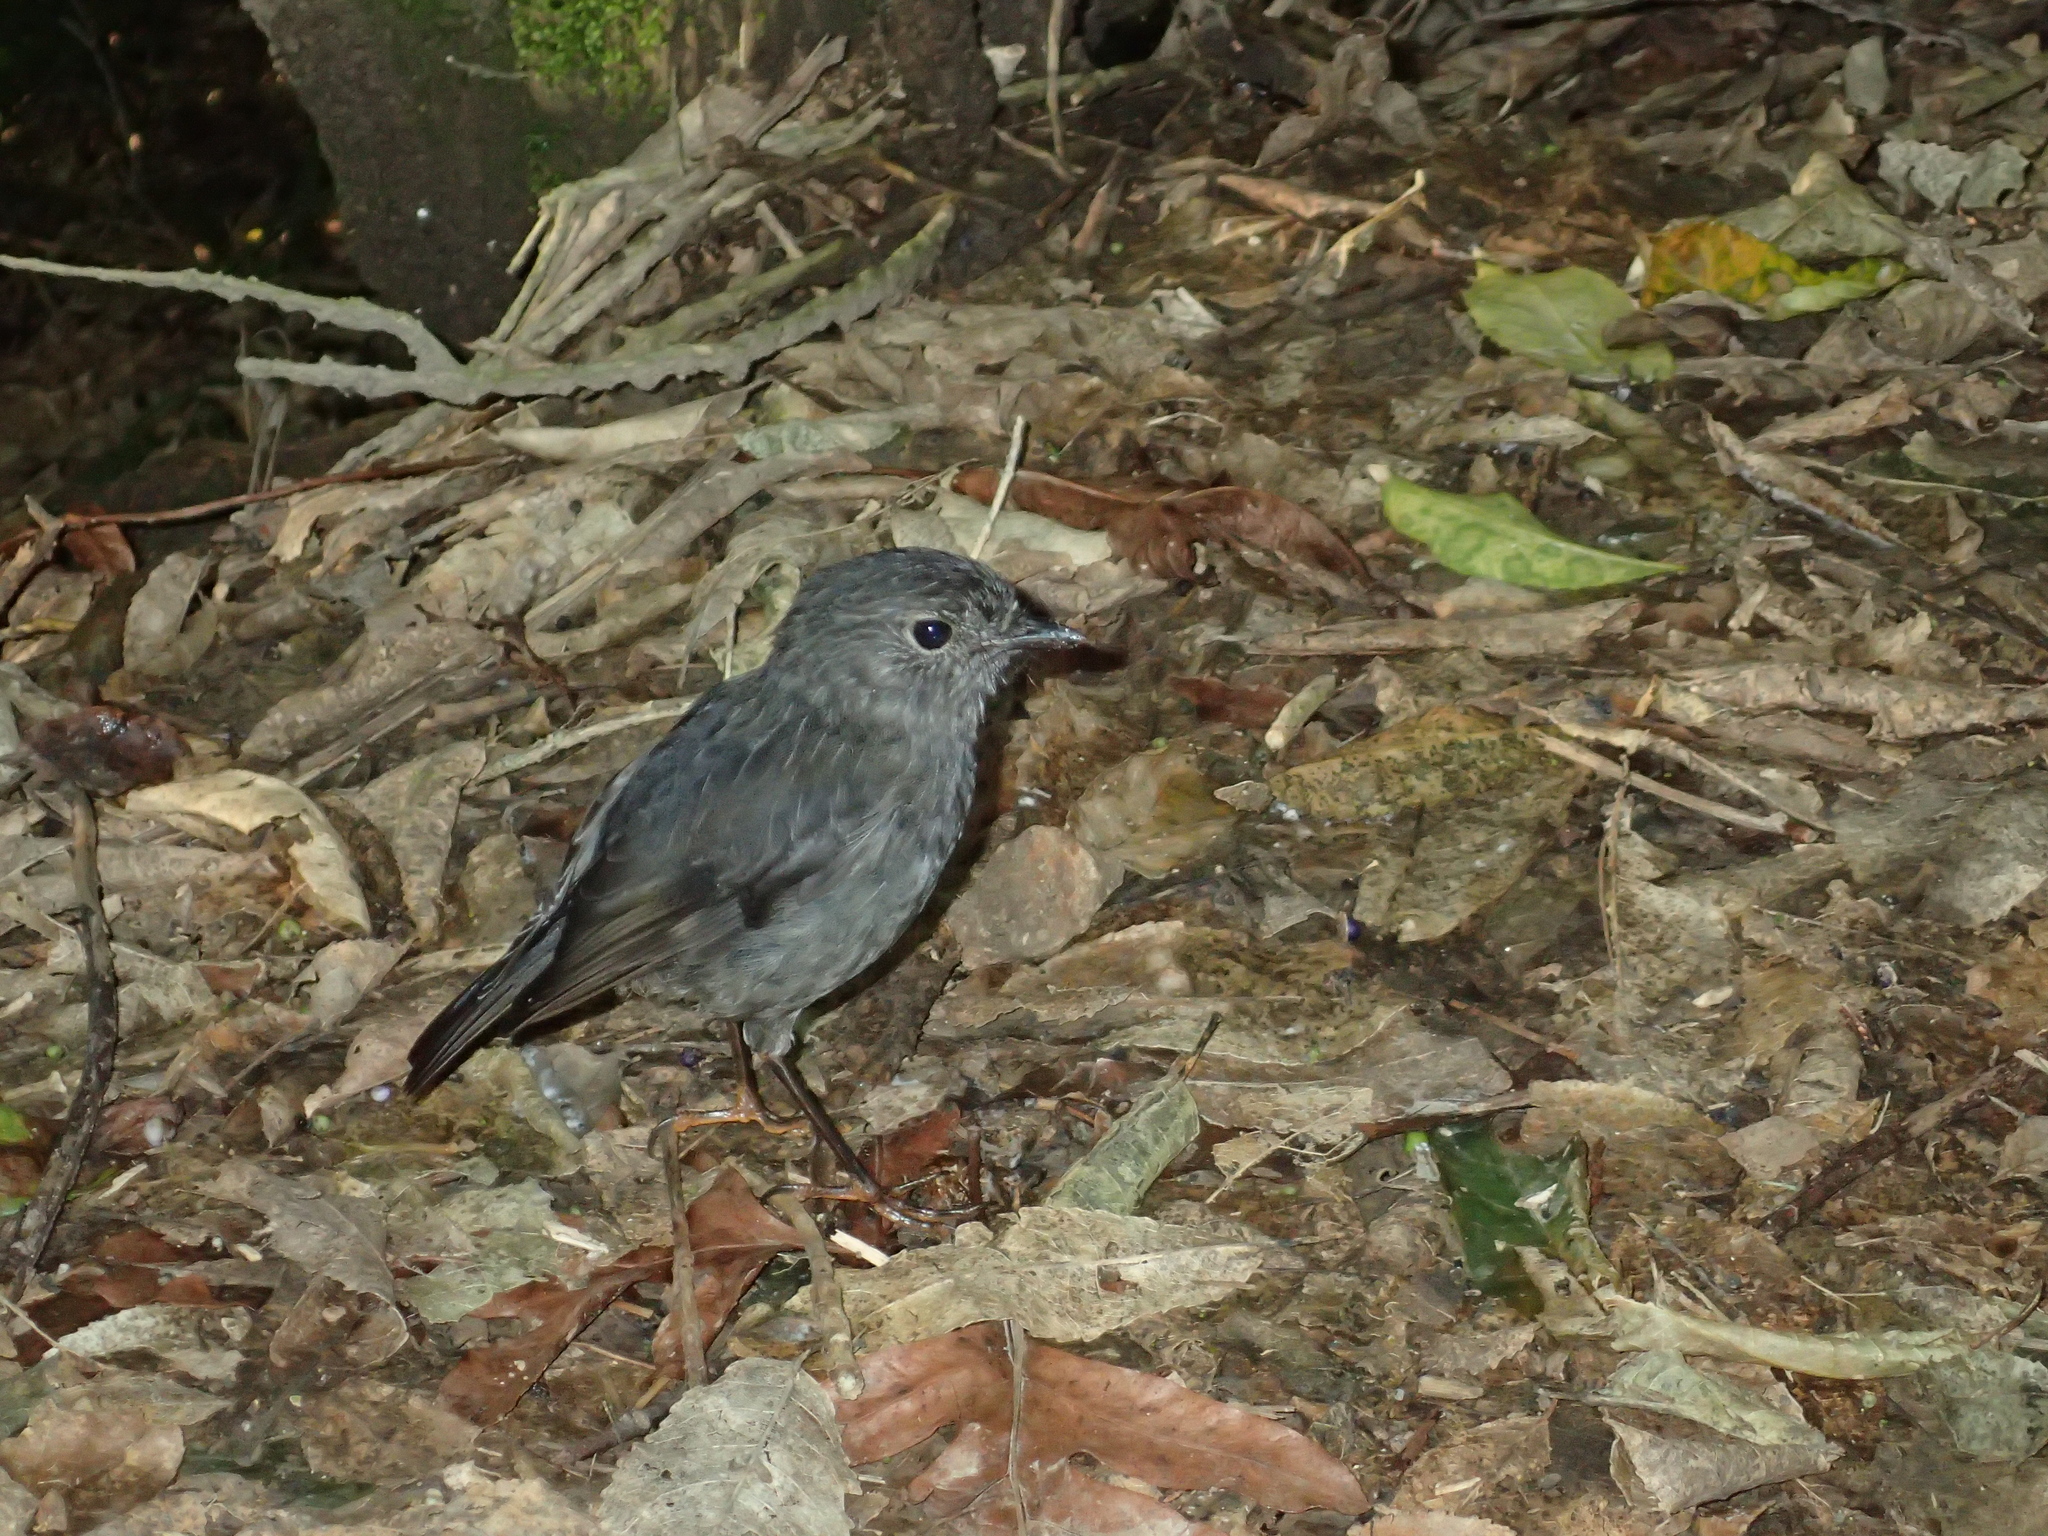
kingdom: Animalia
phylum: Chordata
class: Aves
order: Passeriformes
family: Petroicidae
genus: Petroica
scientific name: Petroica australis
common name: New zealand robin
